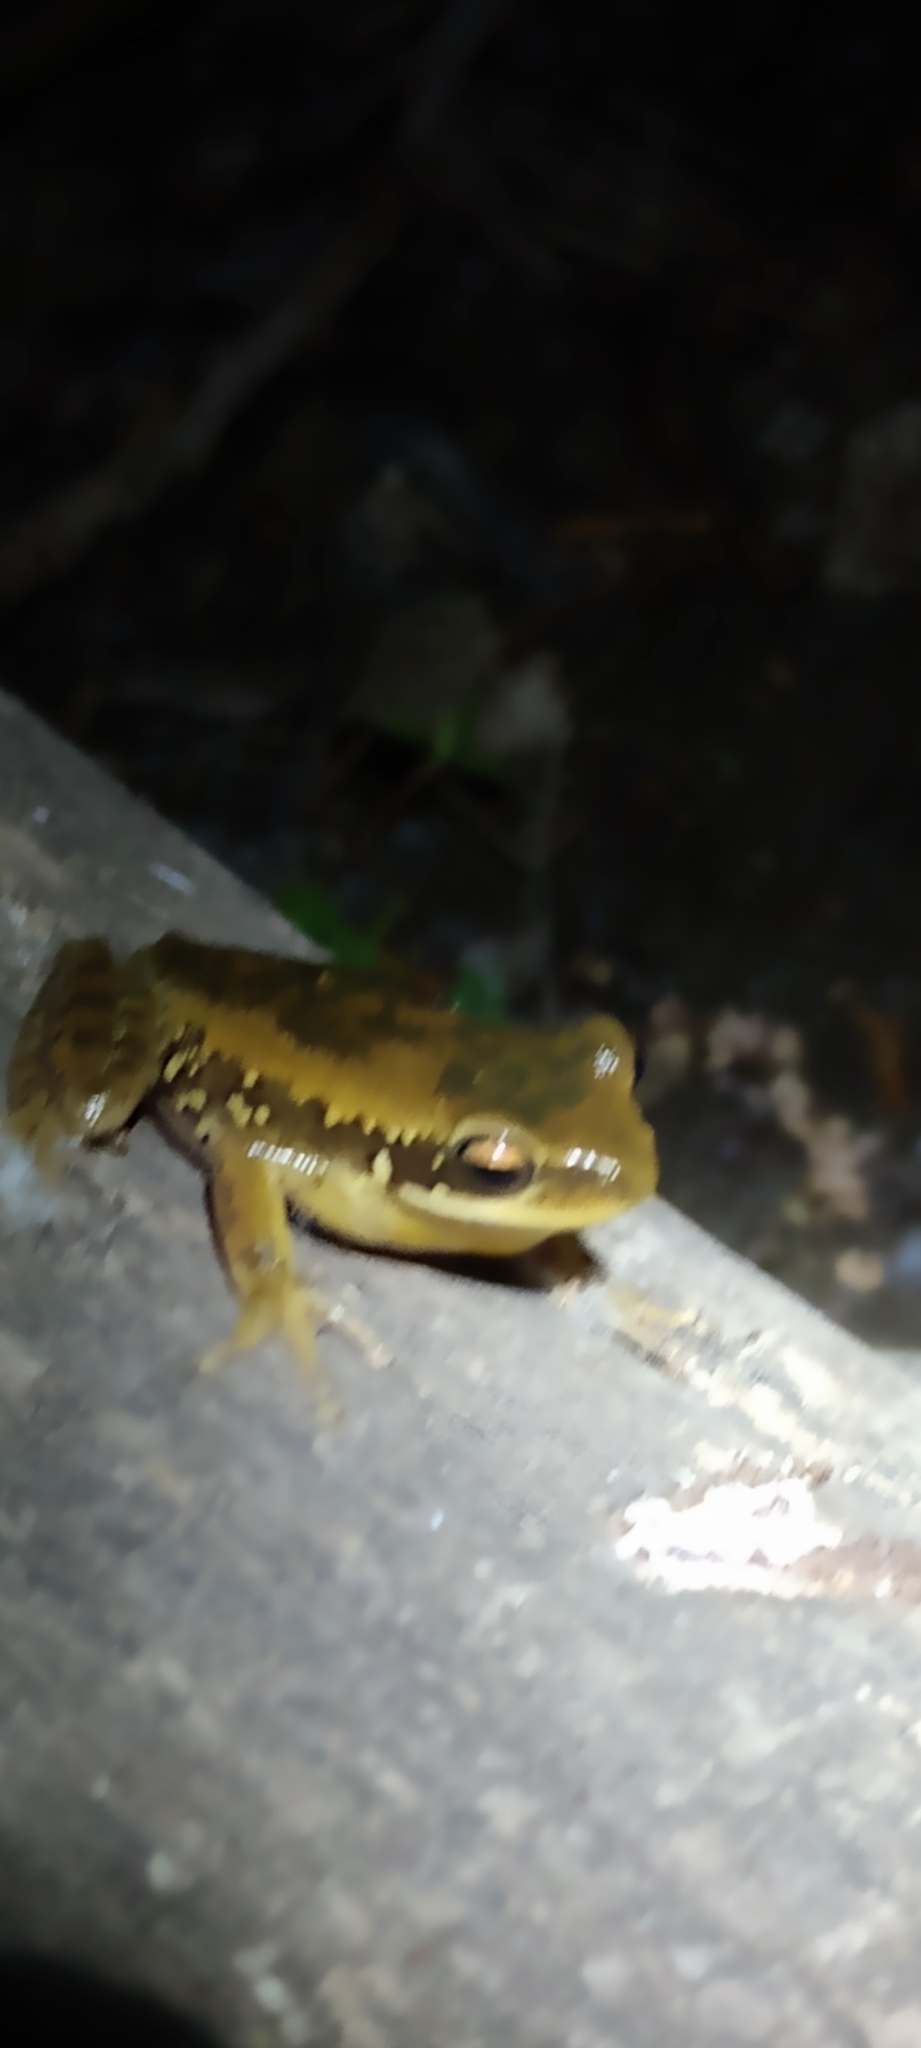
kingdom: Animalia
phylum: Chordata
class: Amphibia
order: Anura
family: Hylidae
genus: Boana
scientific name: Boana pulchella
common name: Montevideo treefrog
